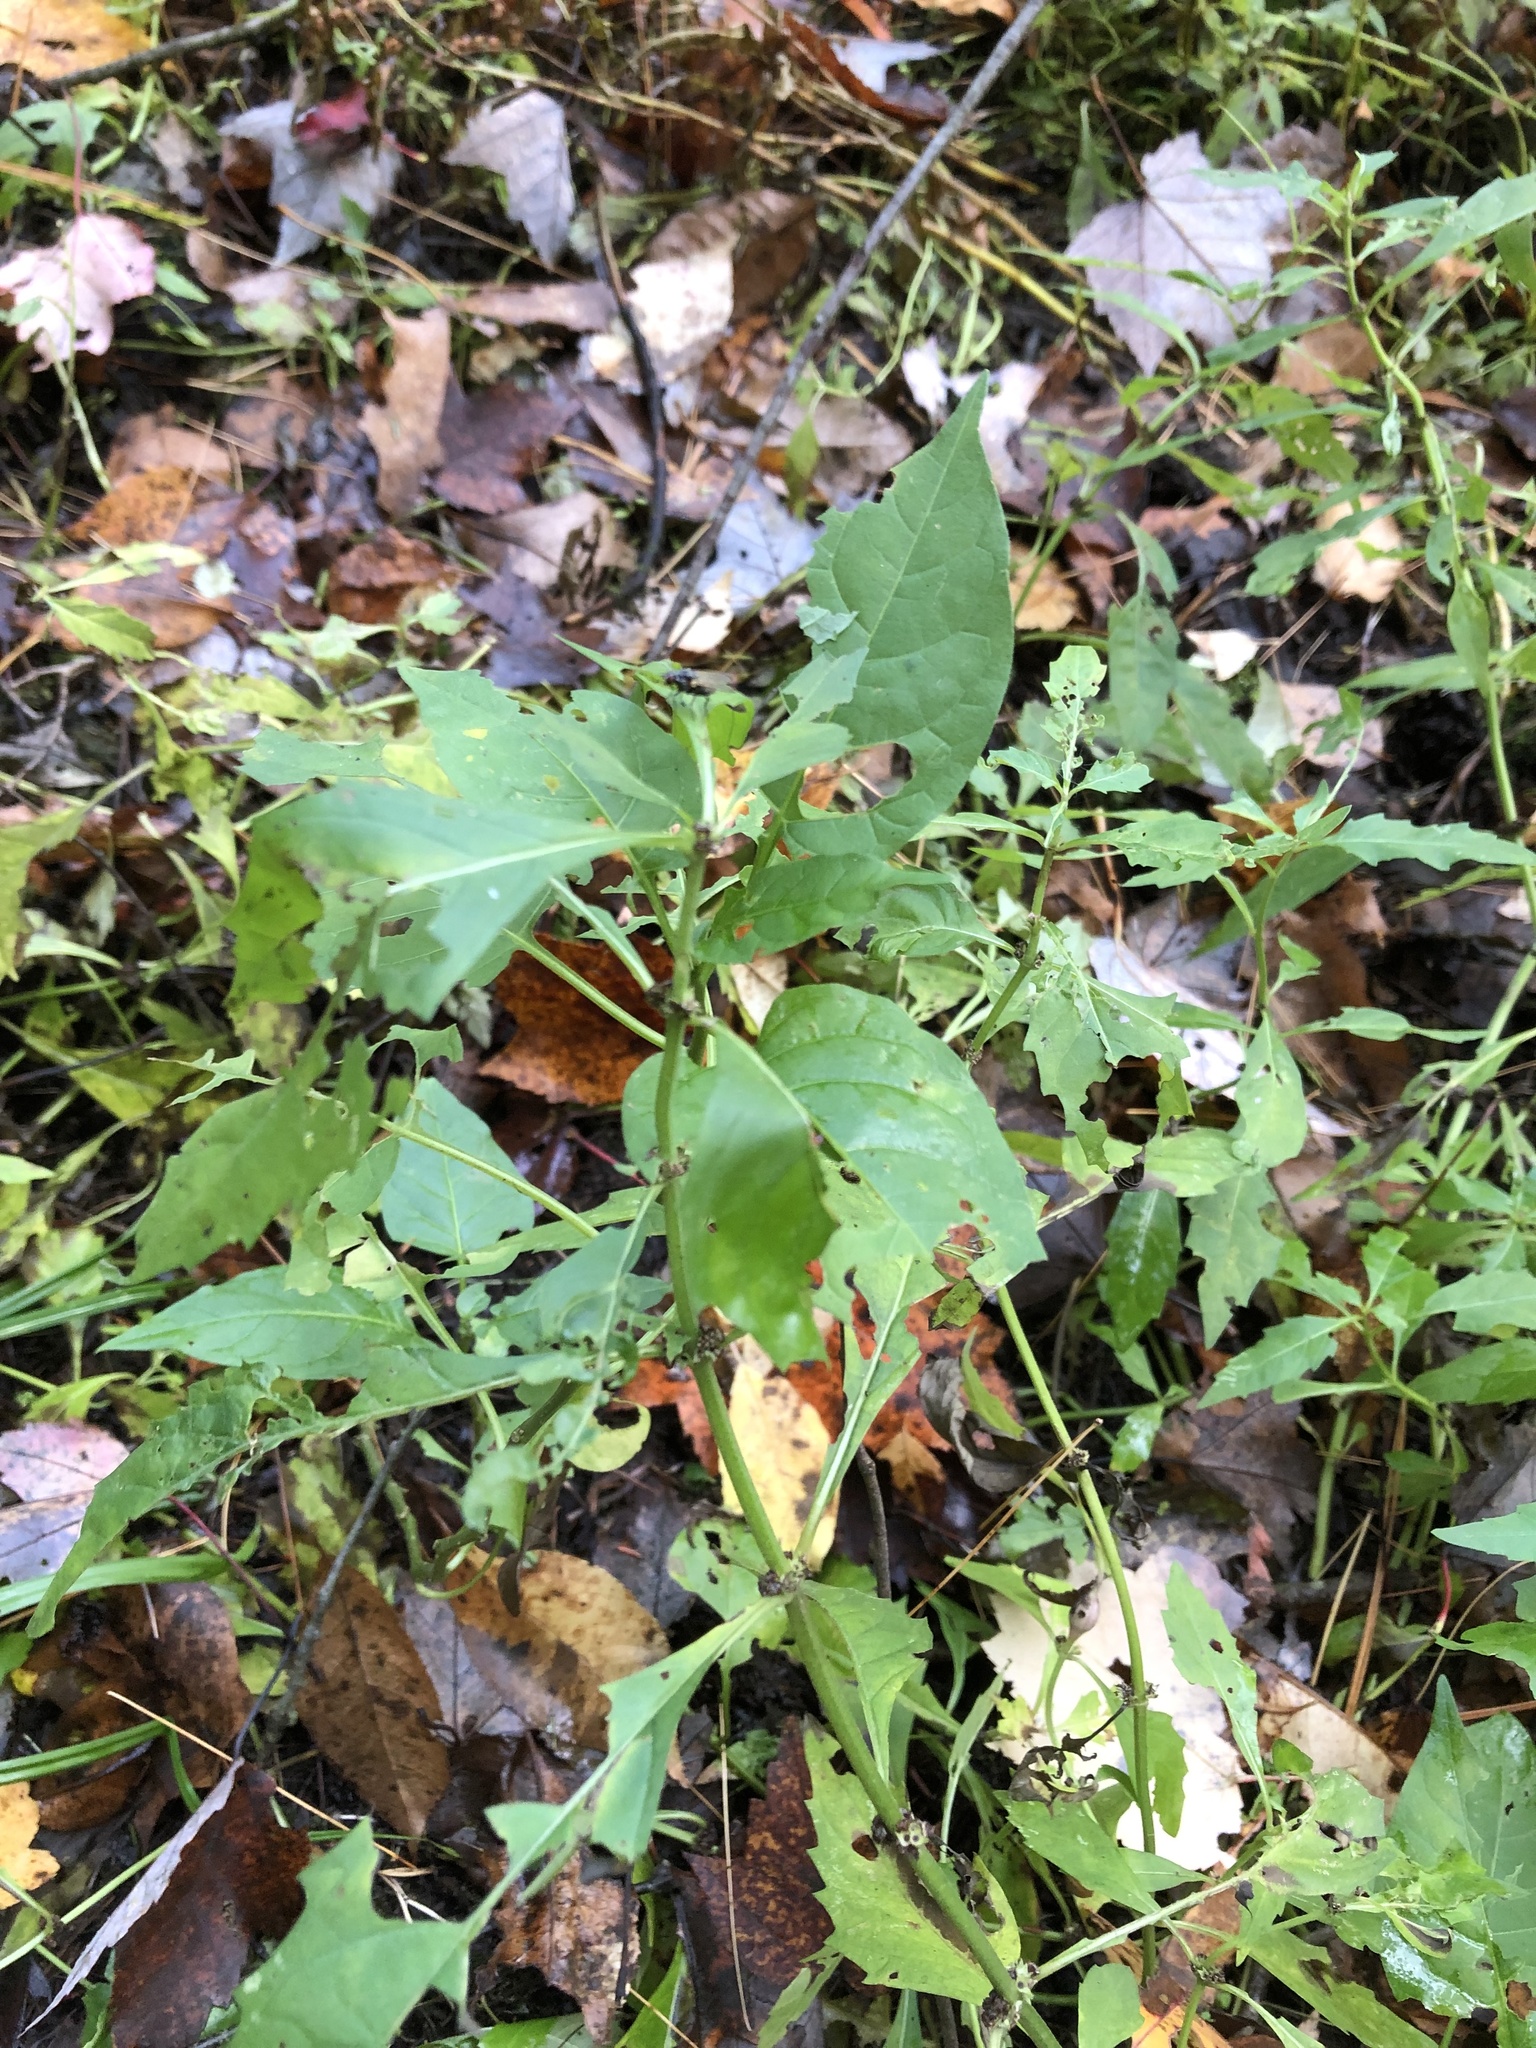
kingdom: Plantae
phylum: Tracheophyta
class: Magnoliopsida
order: Solanales
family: Solanaceae
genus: Solanum
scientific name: Solanum emulans
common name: Eastern black nightshade
